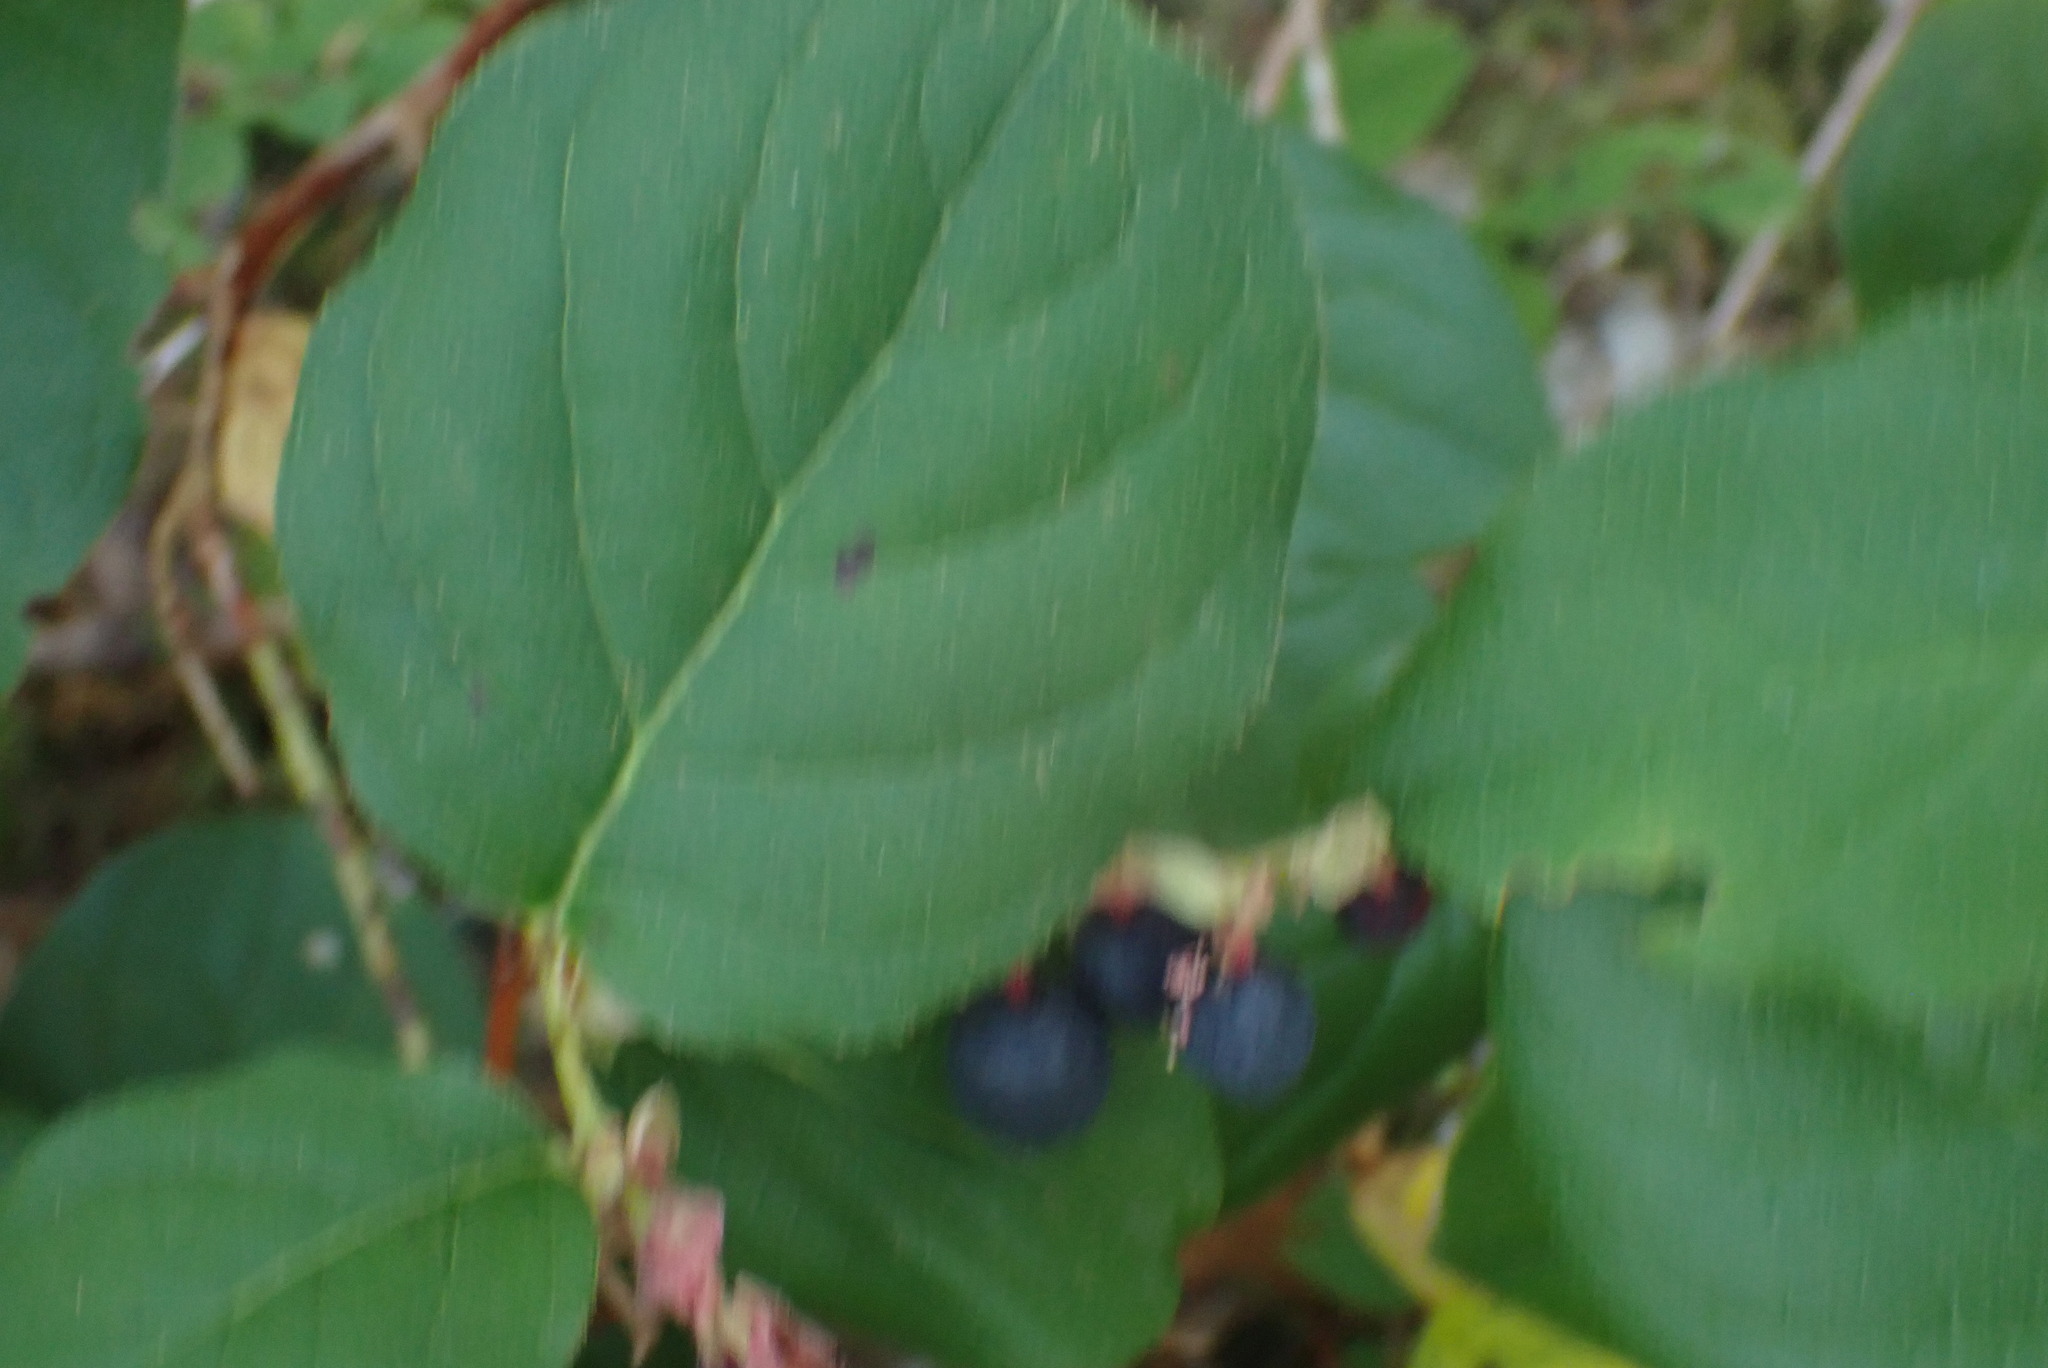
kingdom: Plantae
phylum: Tracheophyta
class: Magnoliopsida
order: Ericales
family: Ericaceae
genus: Gaultheria
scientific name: Gaultheria shallon
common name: Shallon
